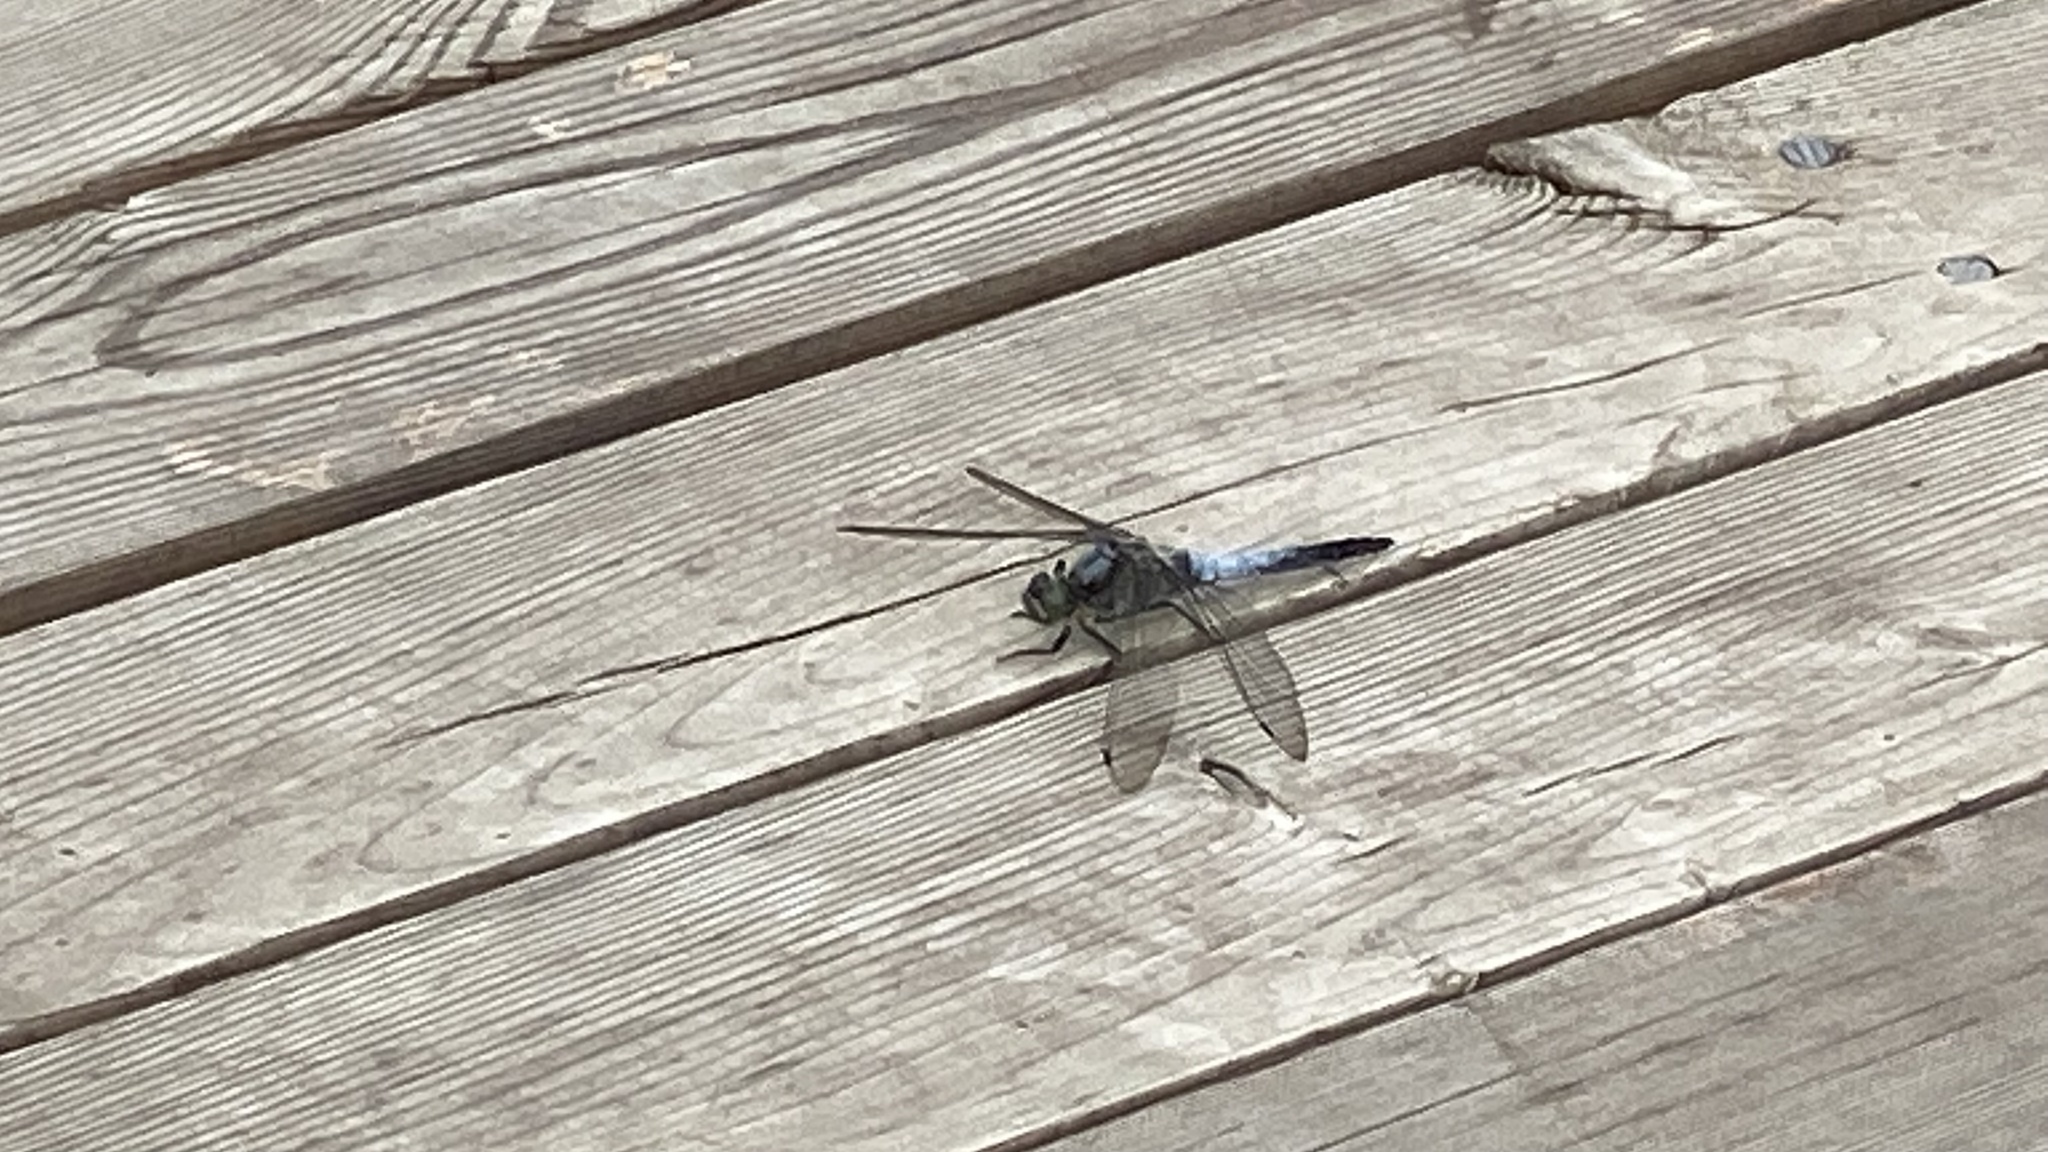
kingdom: Animalia
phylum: Arthropoda
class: Insecta
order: Odonata
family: Libellulidae
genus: Orthetrum
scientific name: Orthetrum cancellatum
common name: Black-tailed skimmer
